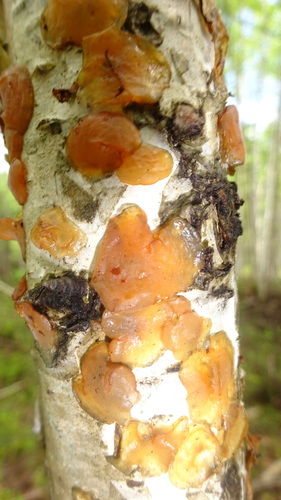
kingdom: Fungi
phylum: Basidiomycota
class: Agaricomycetes
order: Auriculariales
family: Auriculariaceae
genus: Exidia
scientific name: Exidia
